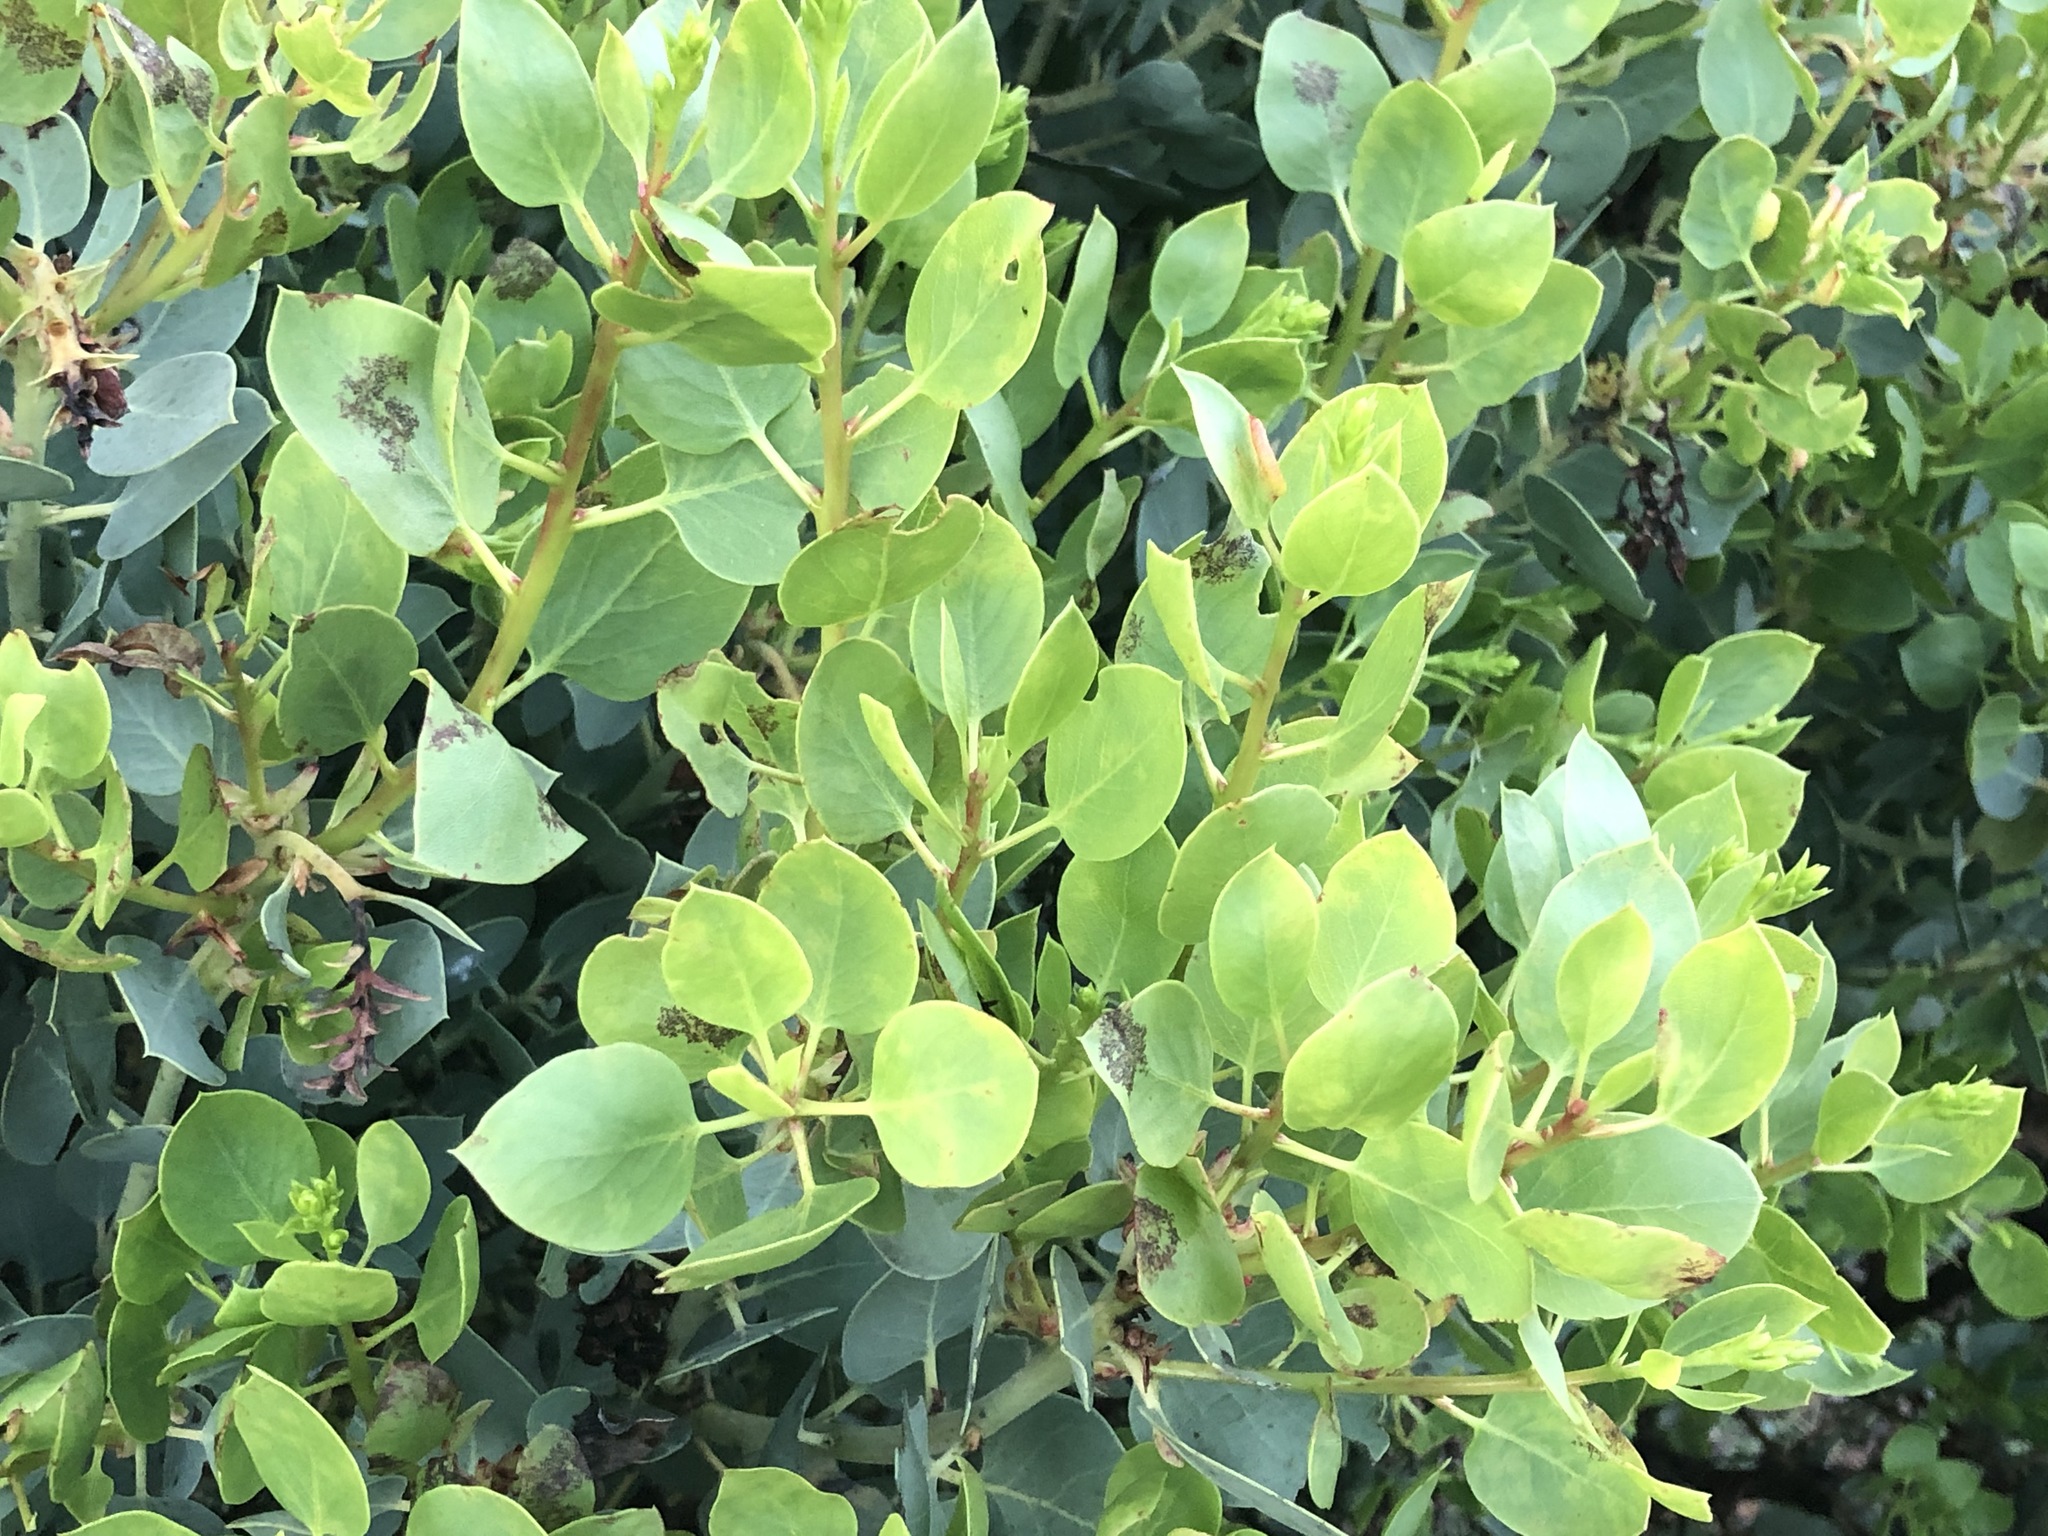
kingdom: Plantae
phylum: Tracheophyta
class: Magnoliopsida
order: Ericales
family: Ericaceae
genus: Arctostaphylos
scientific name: Arctostaphylos manzanita
